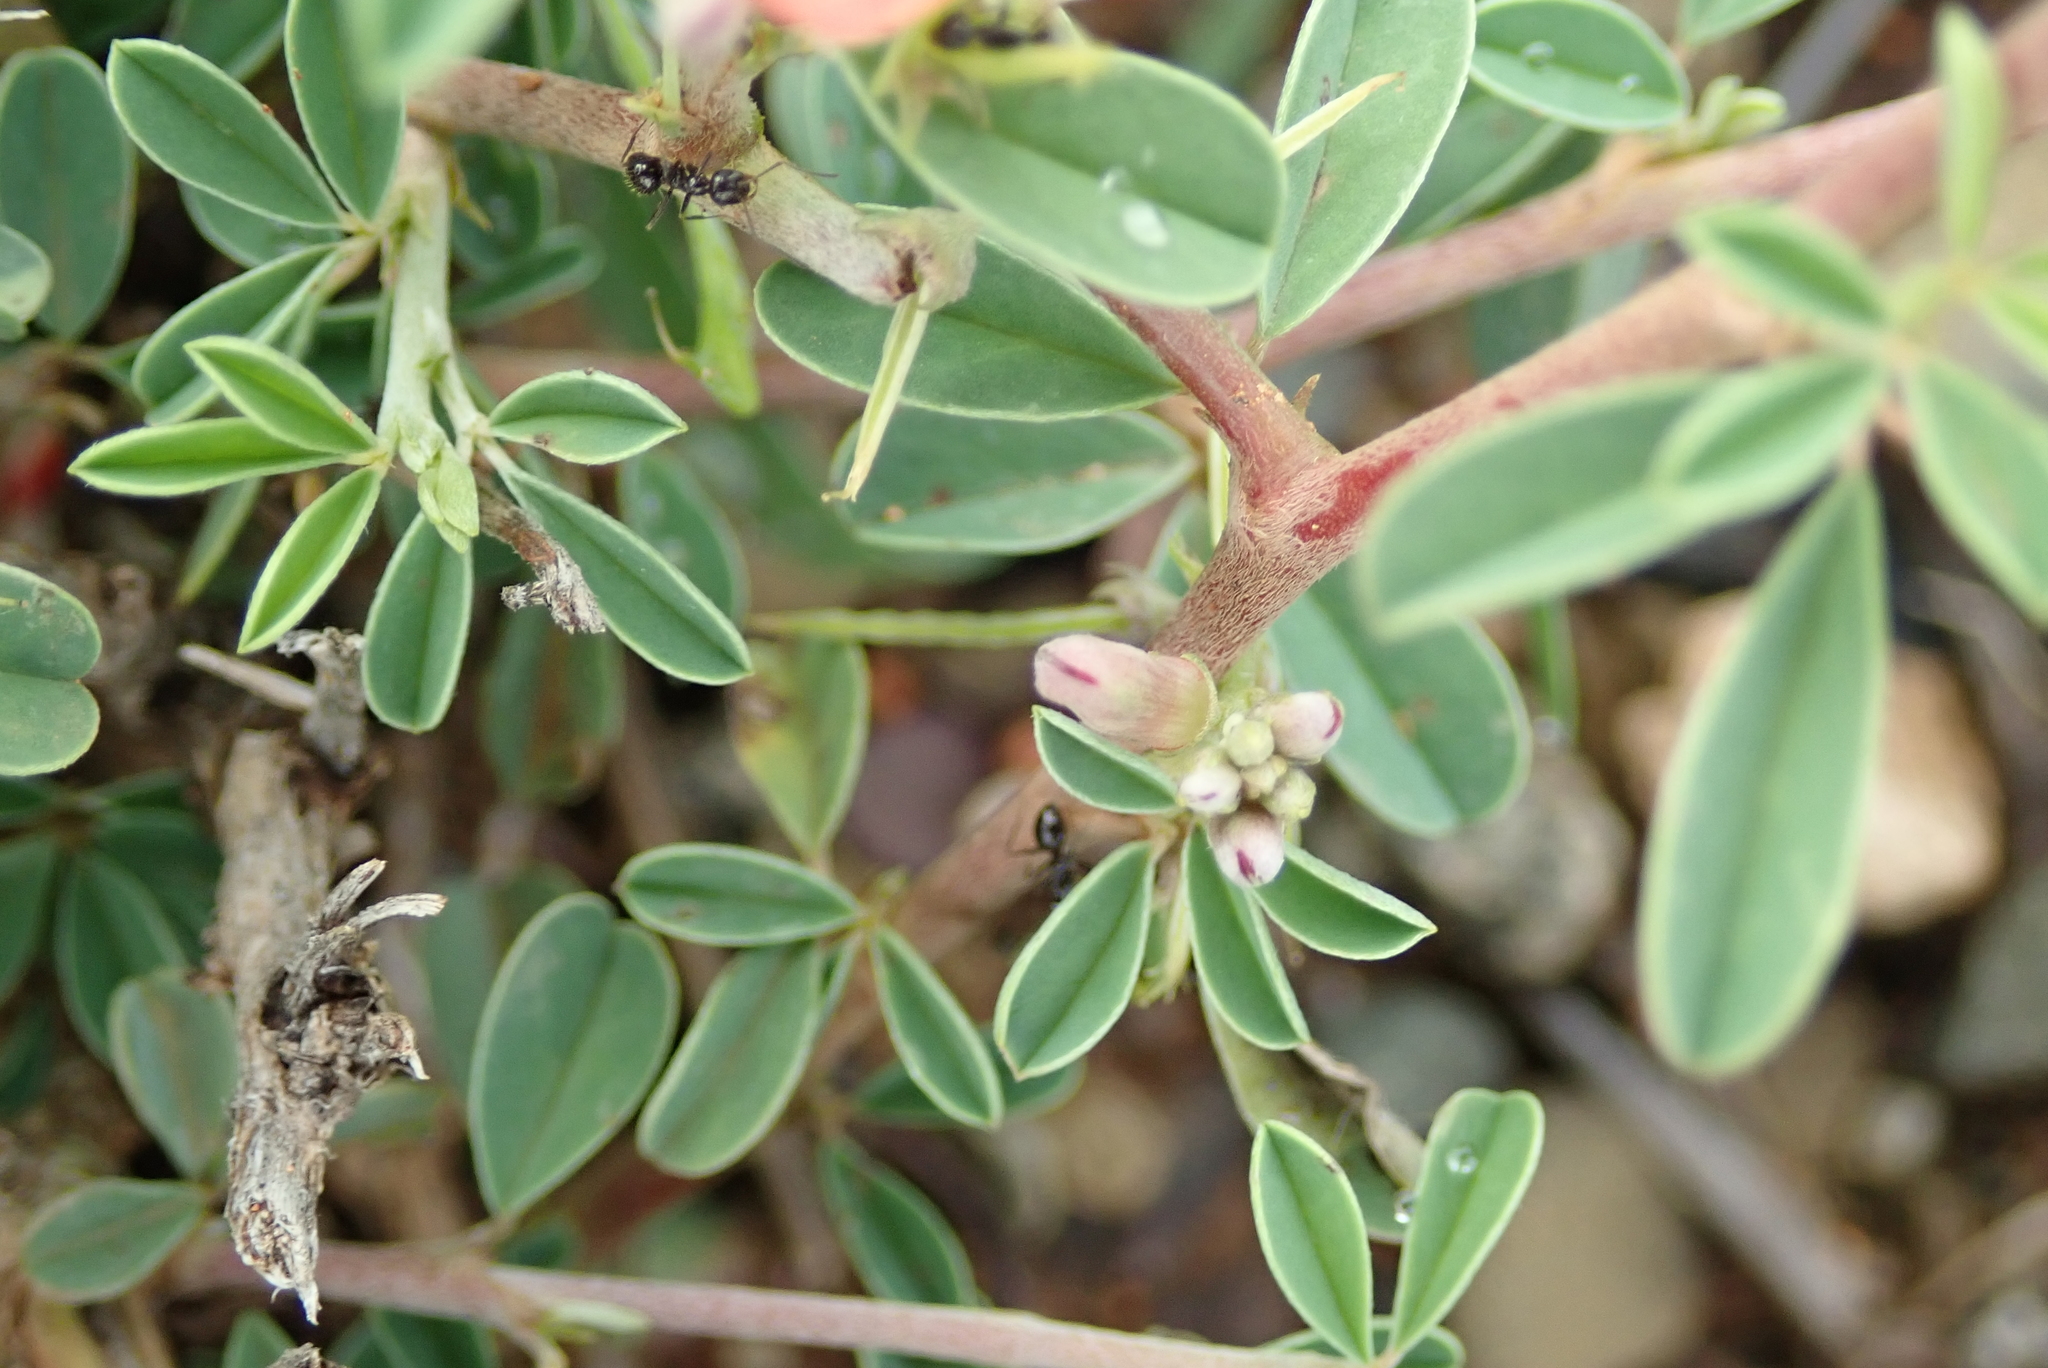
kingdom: Plantae
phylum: Tracheophyta
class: Magnoliopsida
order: Fabales
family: Fabaceae
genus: Indigofera
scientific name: Indigofera sessilifolia
